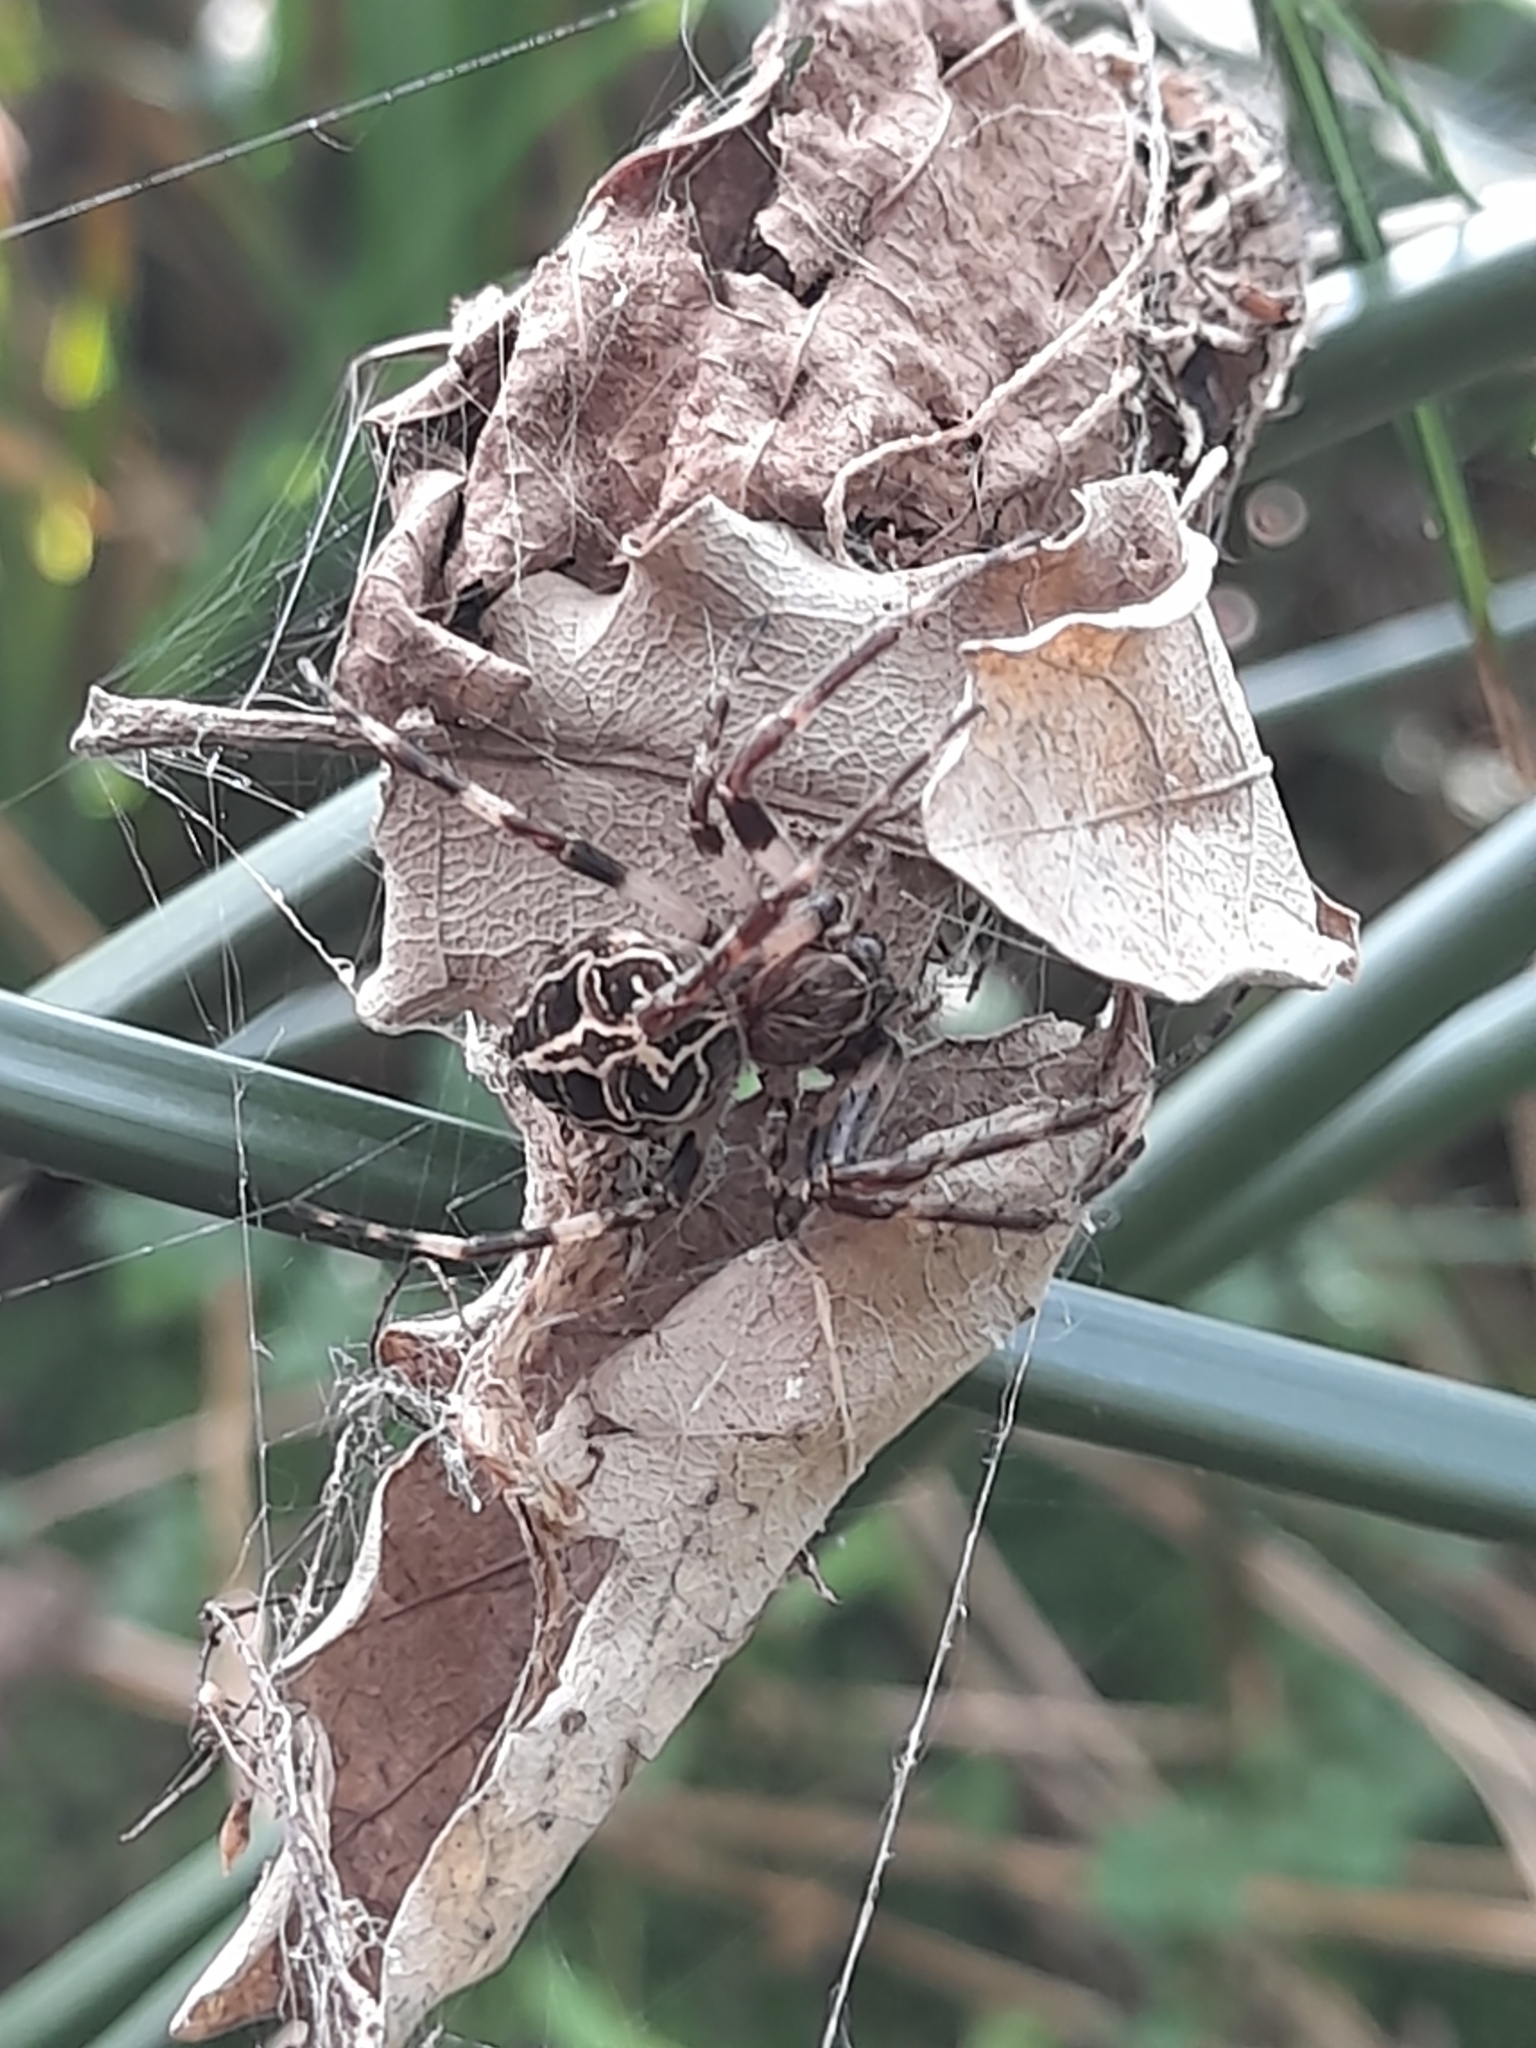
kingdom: Animalia
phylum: Arthropoda
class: Arachnida
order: Araneae
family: Araneidae
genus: Larinioides
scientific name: Larinioides sclopetarius
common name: Bridge orbweaver
